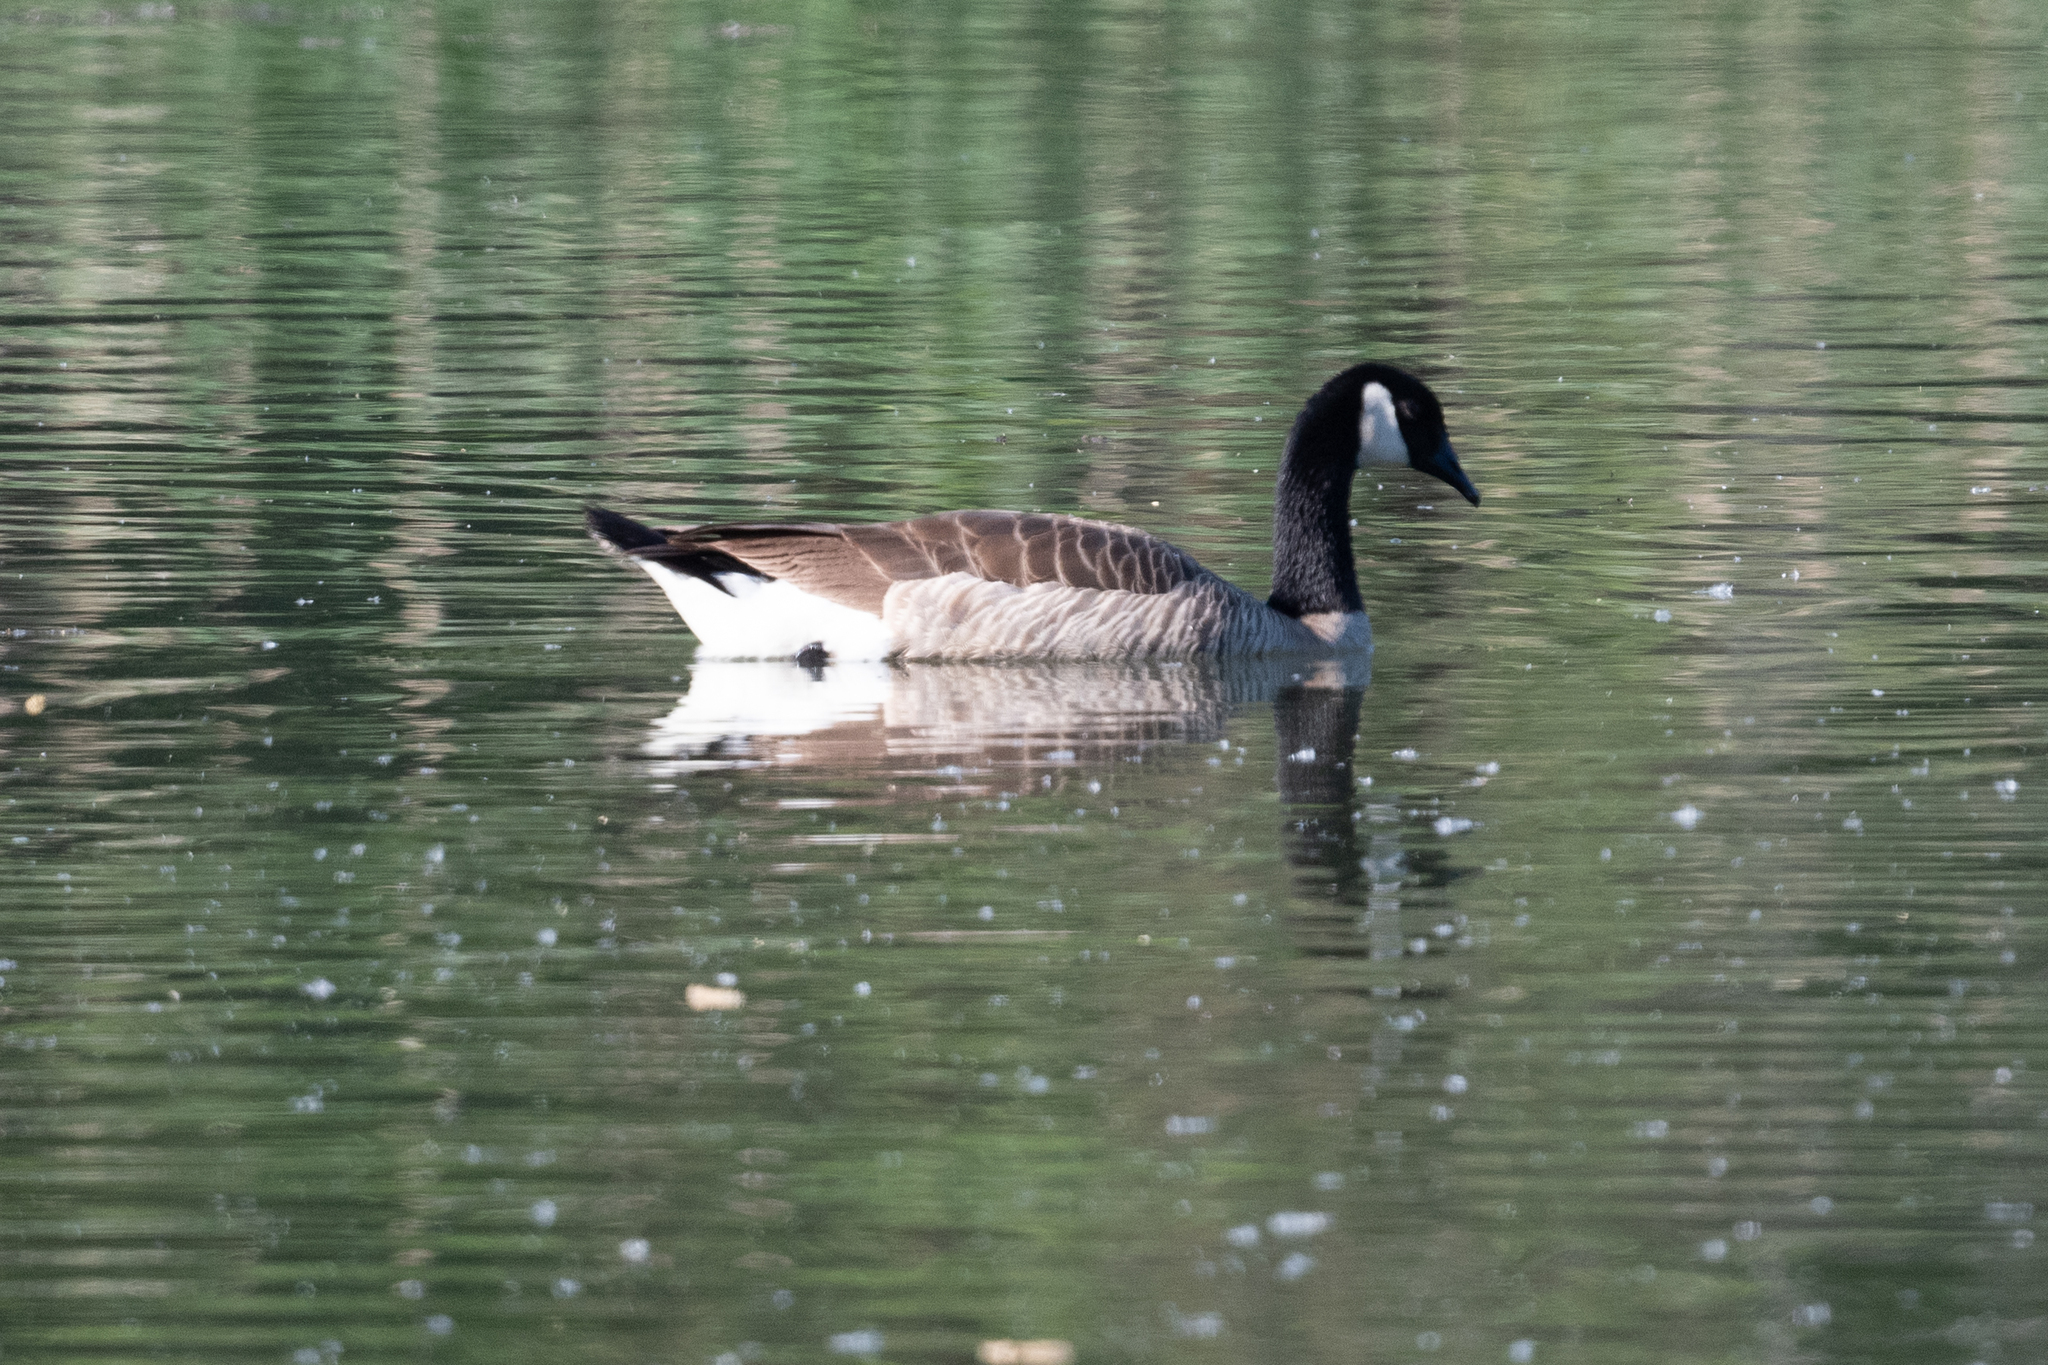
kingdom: Animalia
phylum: Chordata
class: Aves
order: Anseriformes
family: Anatidae
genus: Branta
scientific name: Branta canadensis
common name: Canada goose
